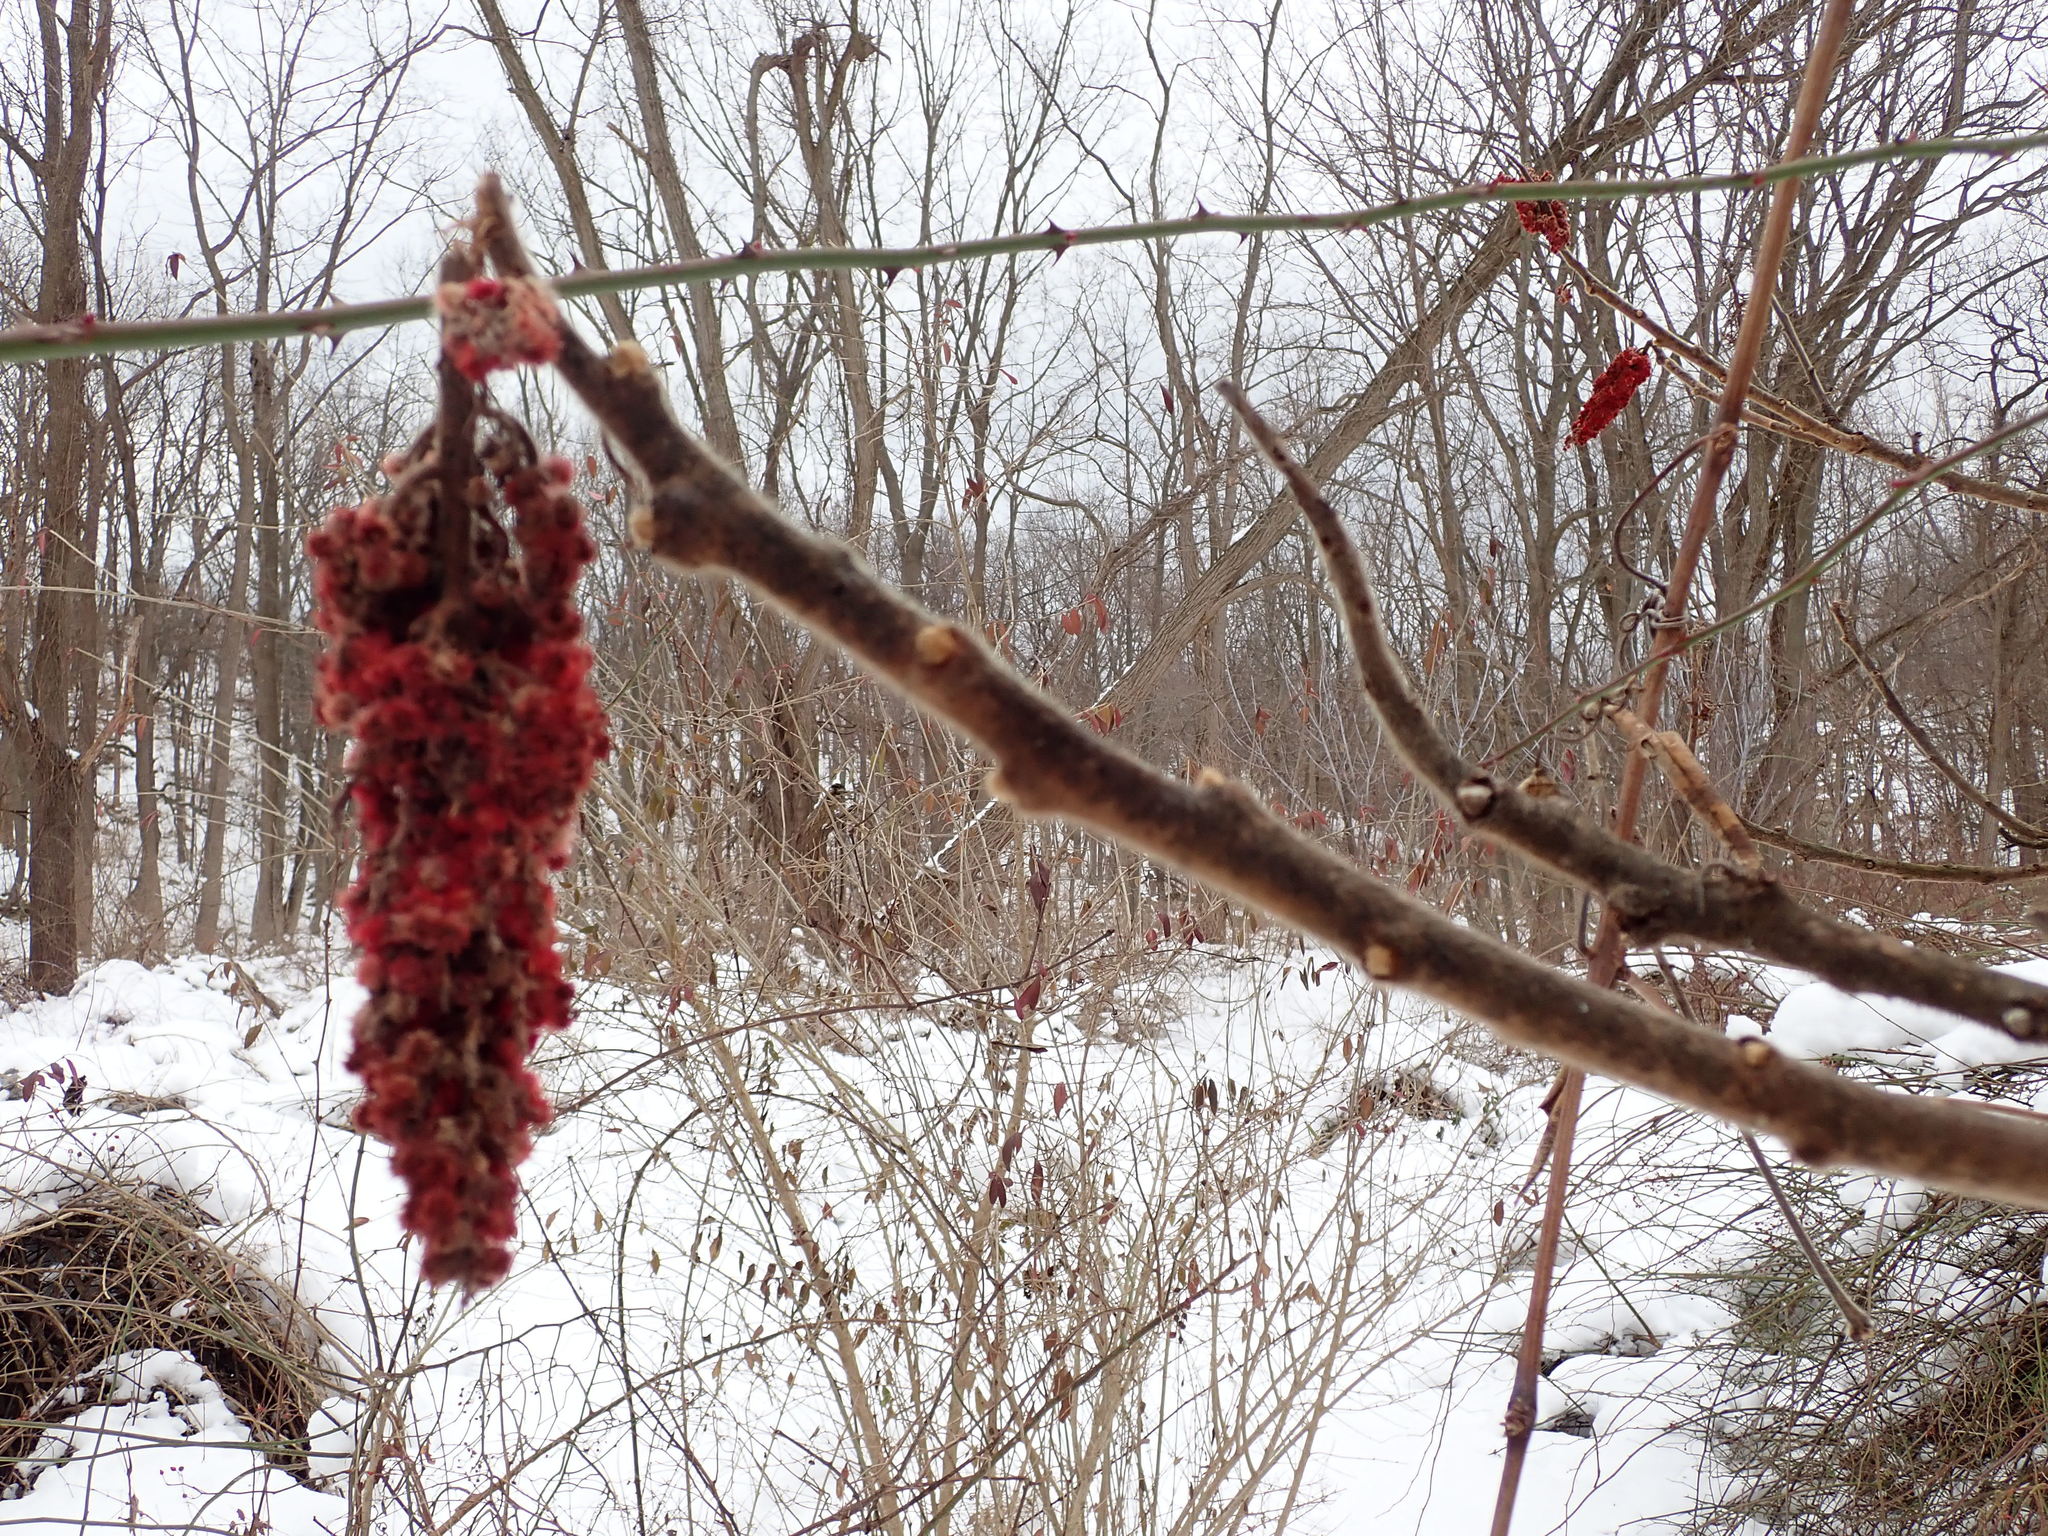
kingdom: Plantae
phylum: Tracheophyta
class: Magnoliopsida
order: Sapindales
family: Anacardiaceae
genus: Rhus
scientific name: Rhus typhina
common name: Staghorn sumac
